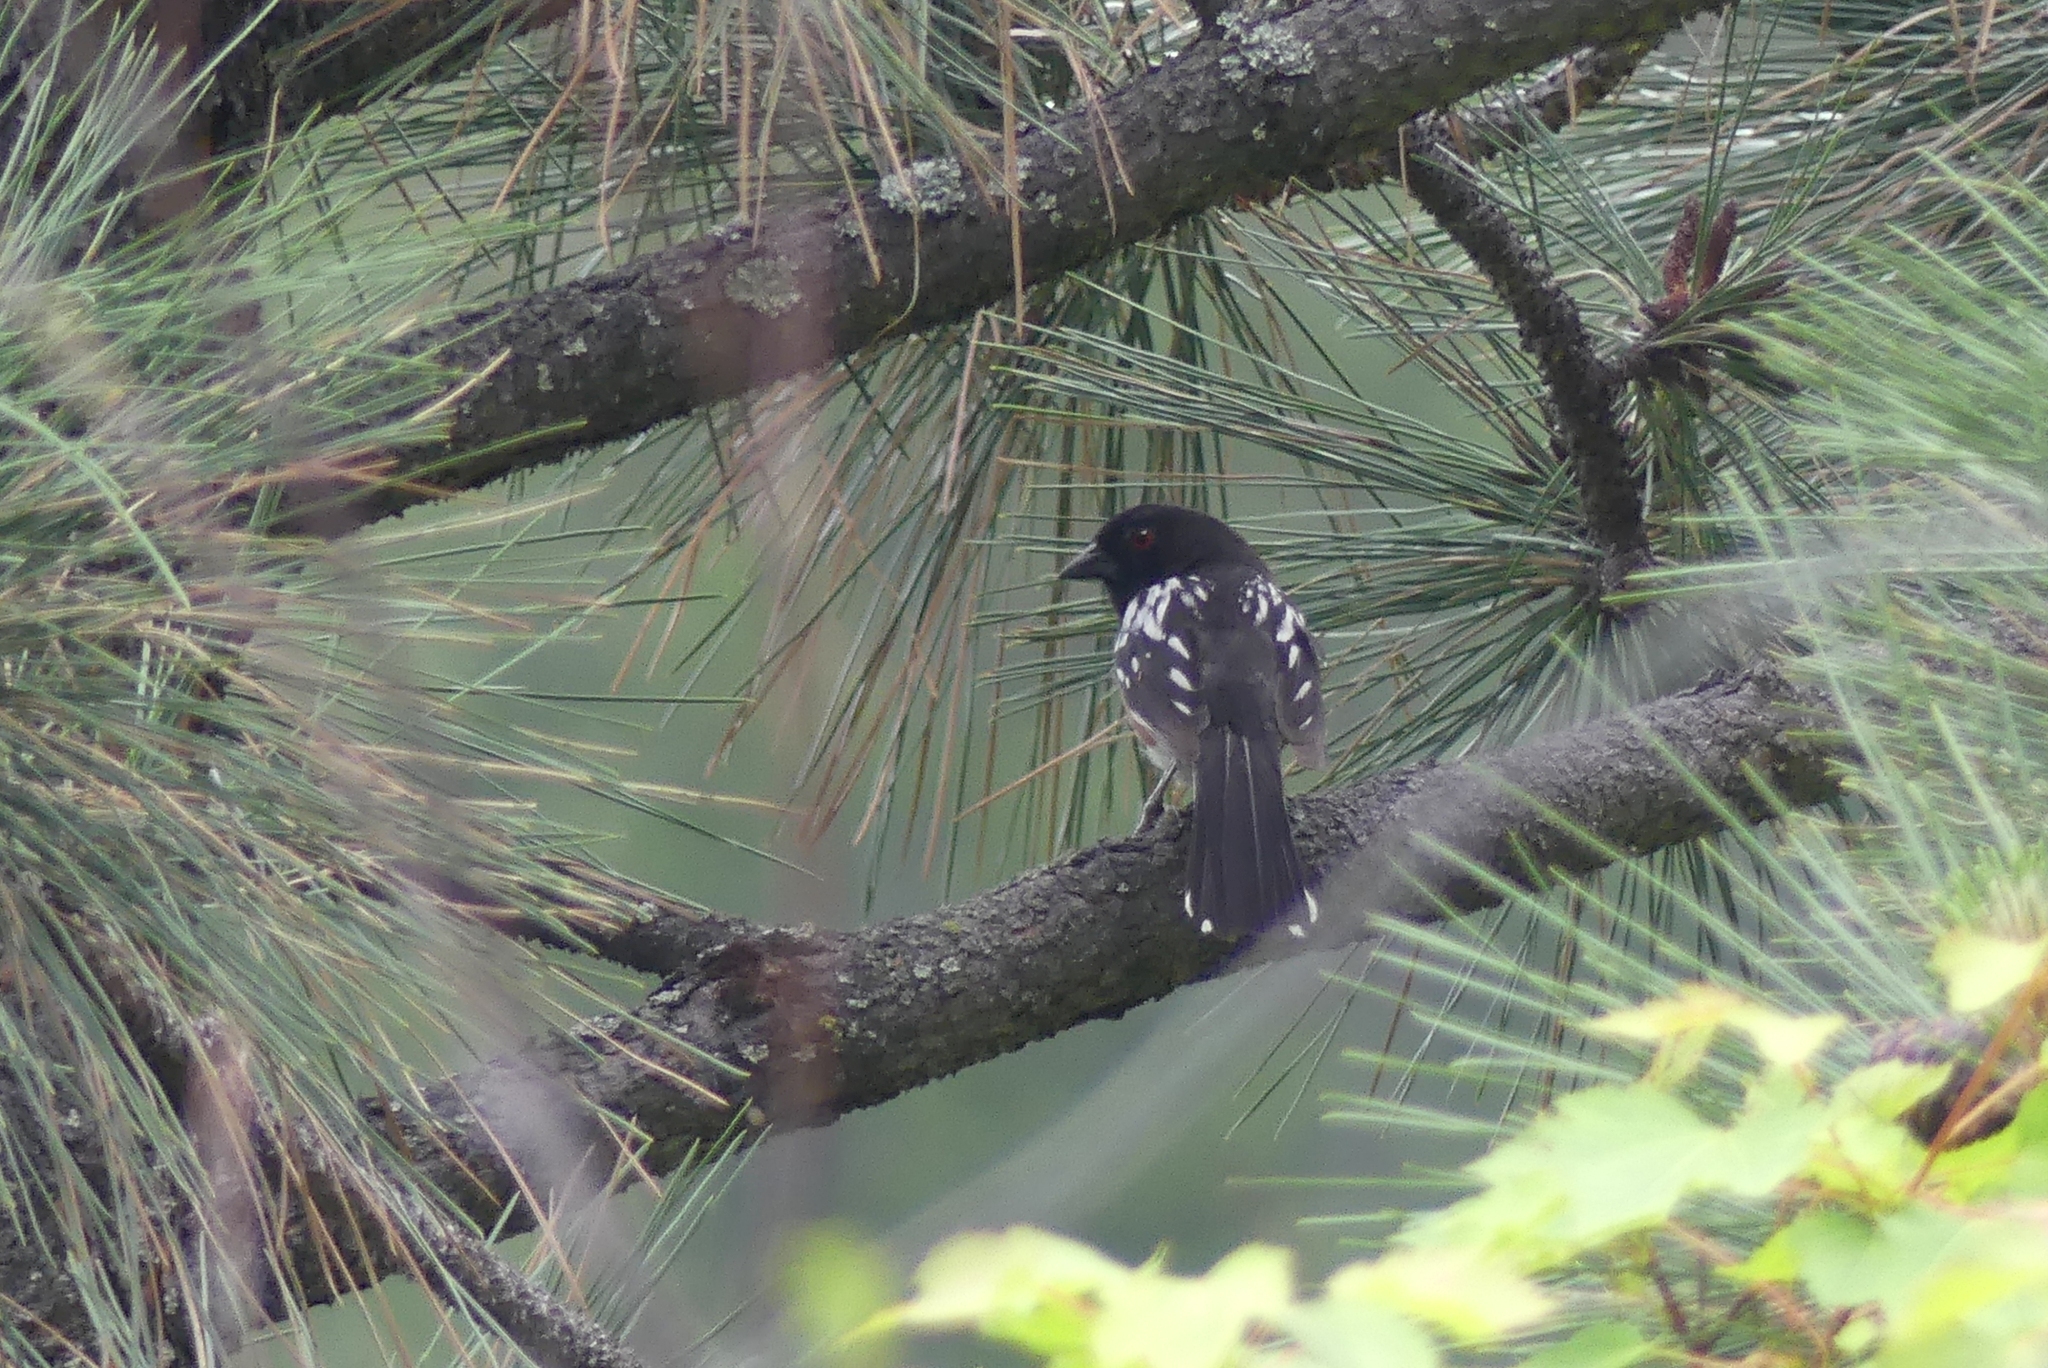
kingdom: Animalia
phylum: Chordata
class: Aves
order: Passeriformes
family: Passerellidae
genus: Pipilo
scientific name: Pipilo maculatus
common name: Spotted towhee
